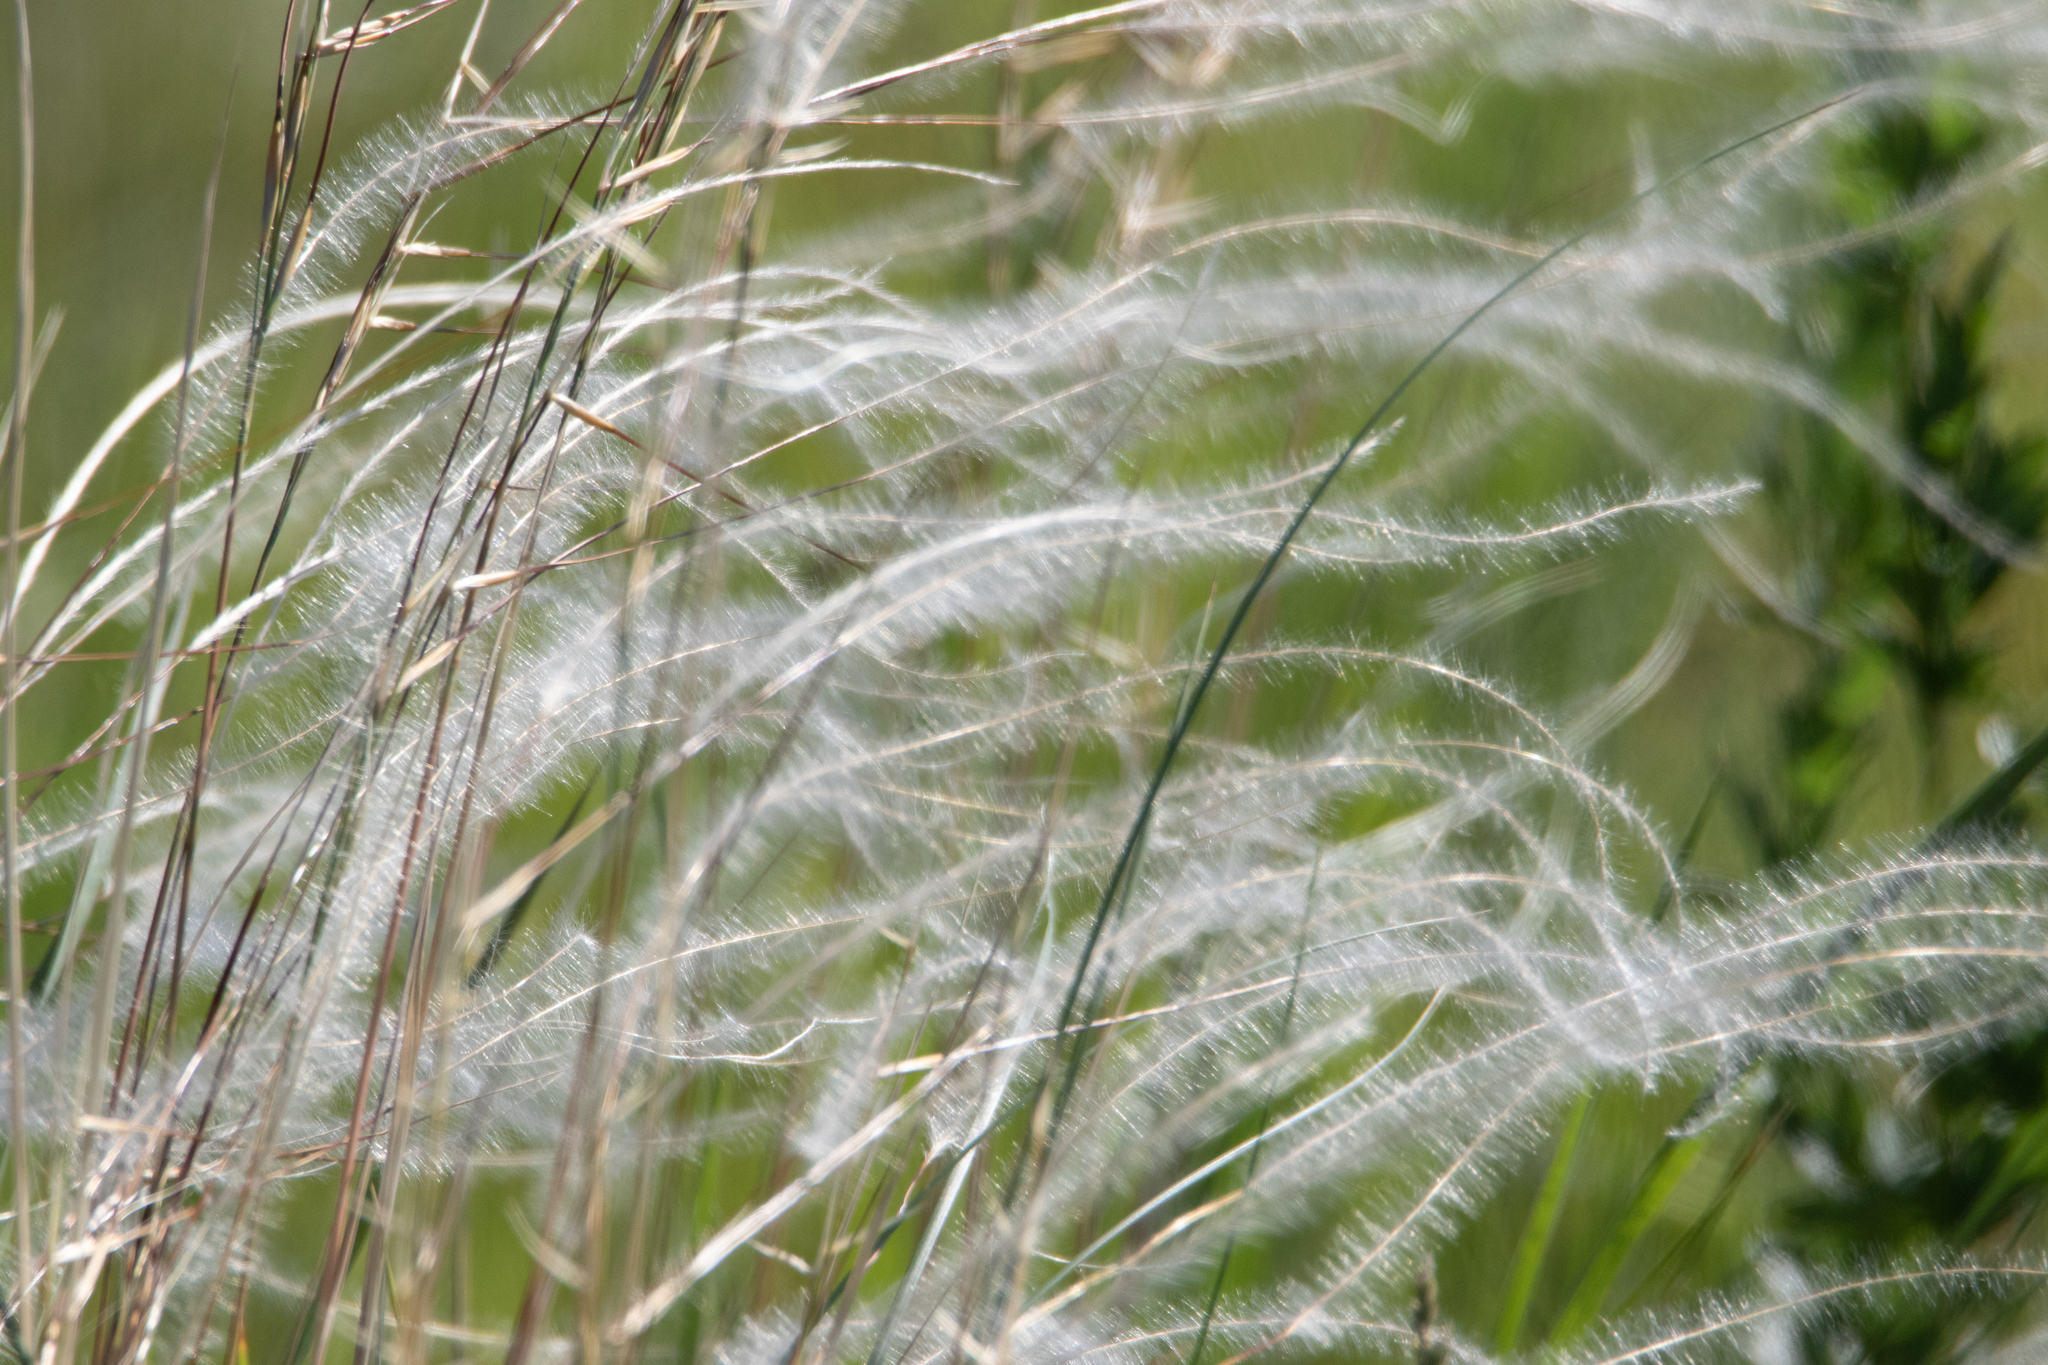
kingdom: Plantae
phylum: Tracheophyta
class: Liliopsida
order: Poales
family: Poaceae
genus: Stipa
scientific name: Stipa pennata
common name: European feather grass
